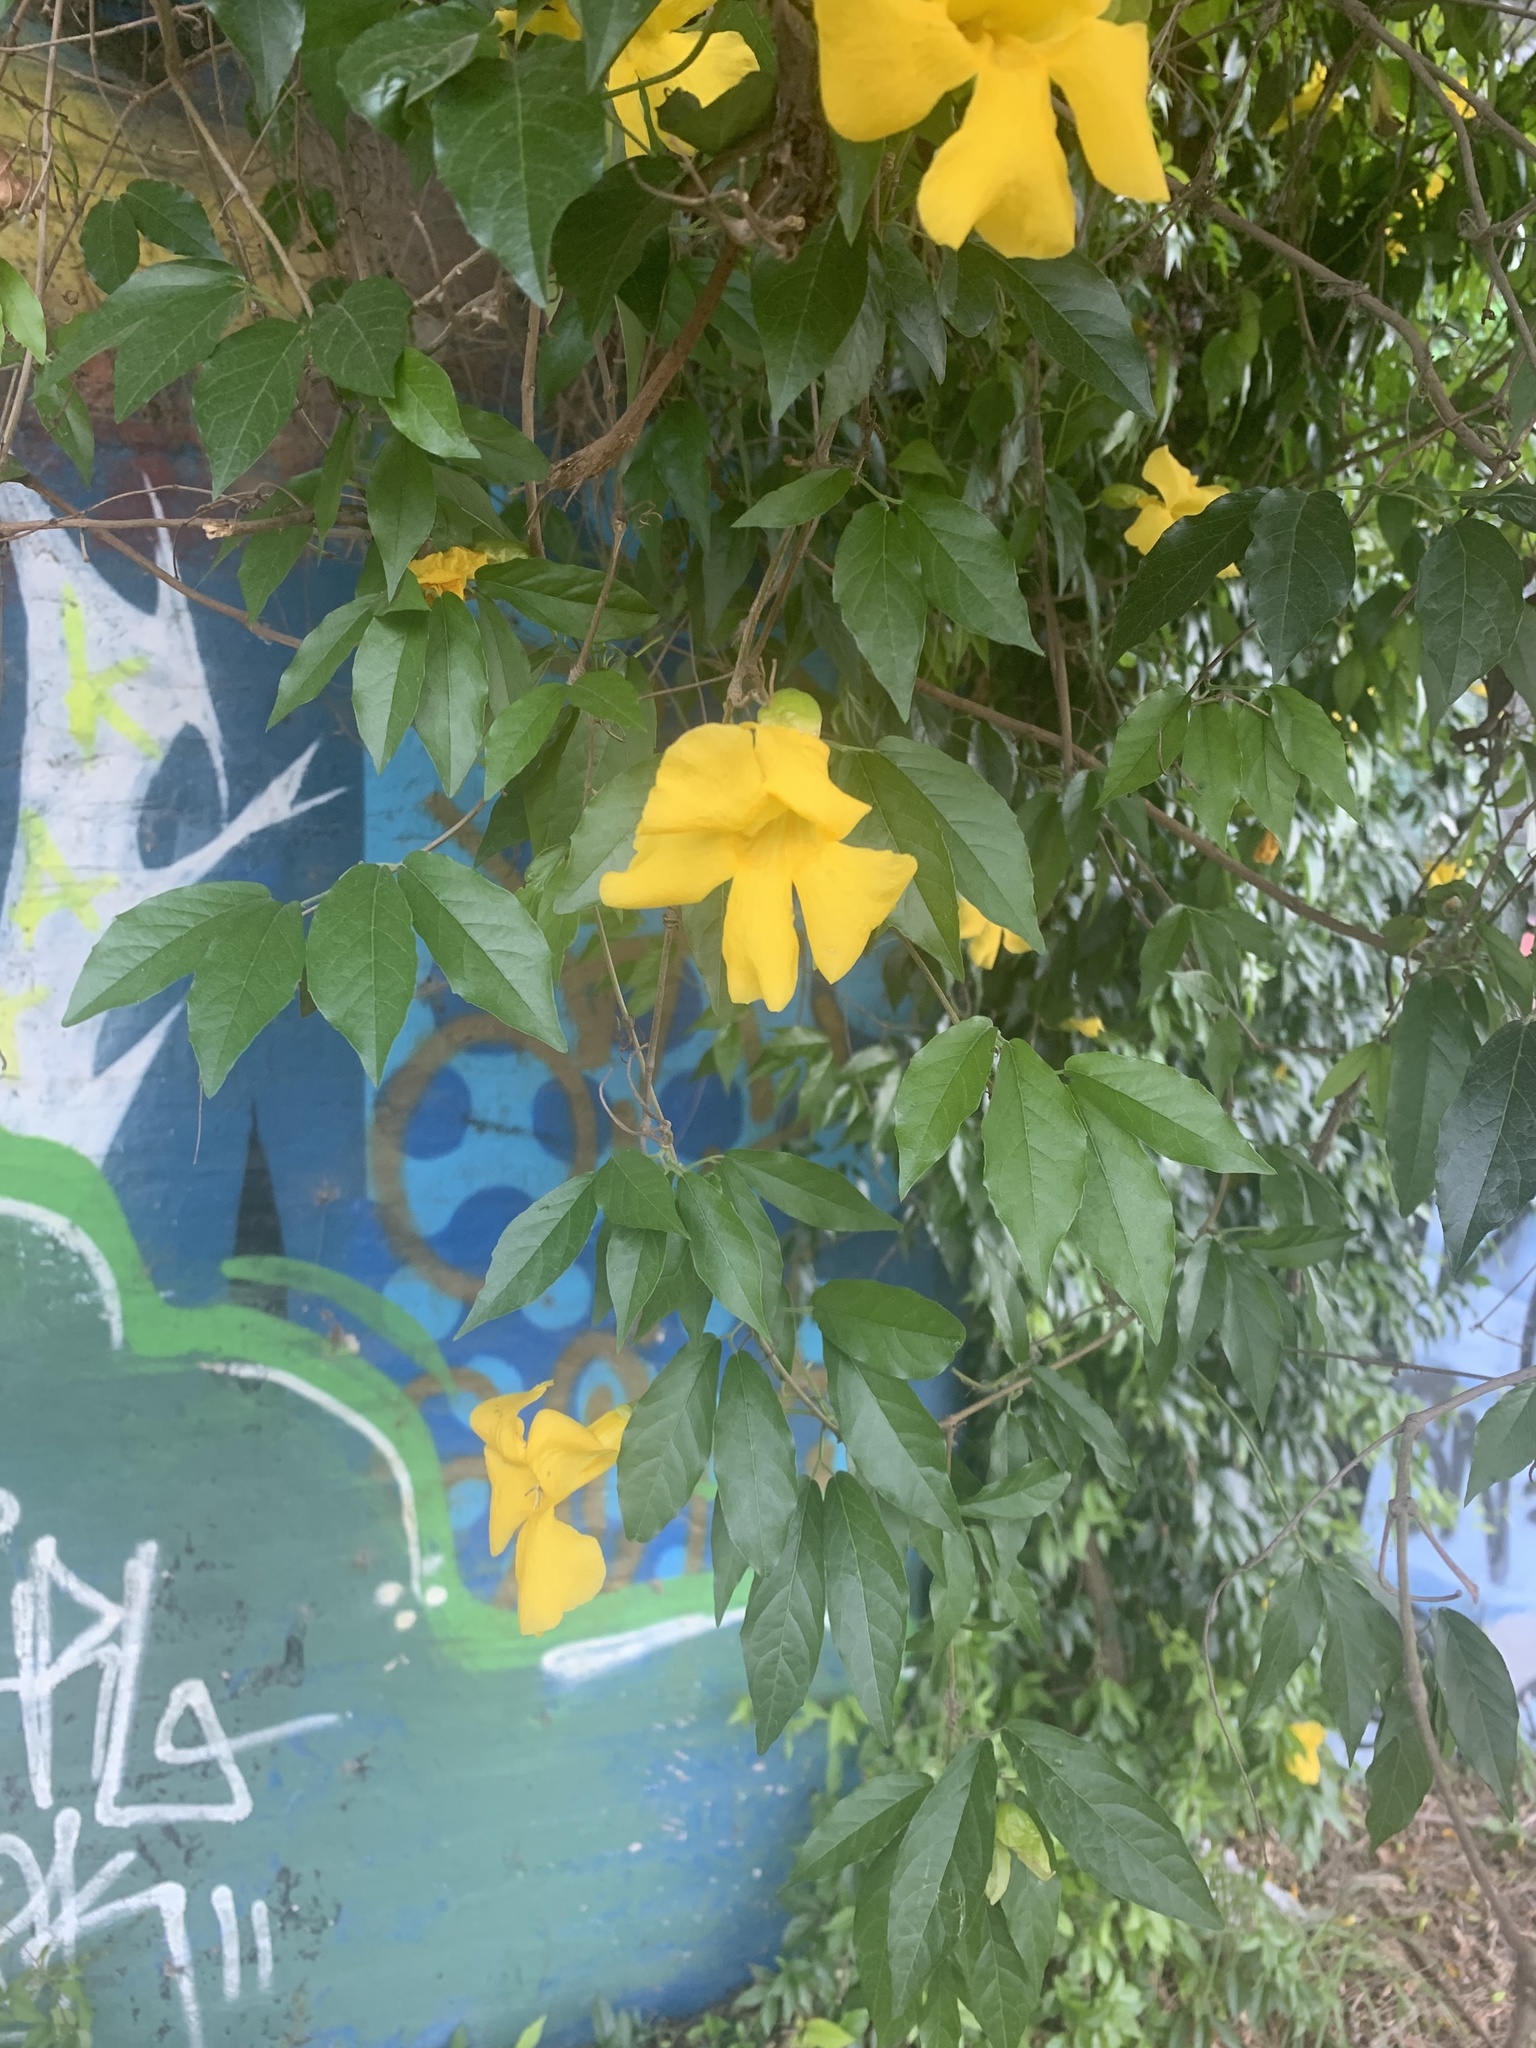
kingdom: Plantae
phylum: Tracheophyta
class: Magnoliopsida
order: Lamiales
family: Bignoniaceae
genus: Dolichandra
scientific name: Dolichandra unguis-cati
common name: Catclaw vine
